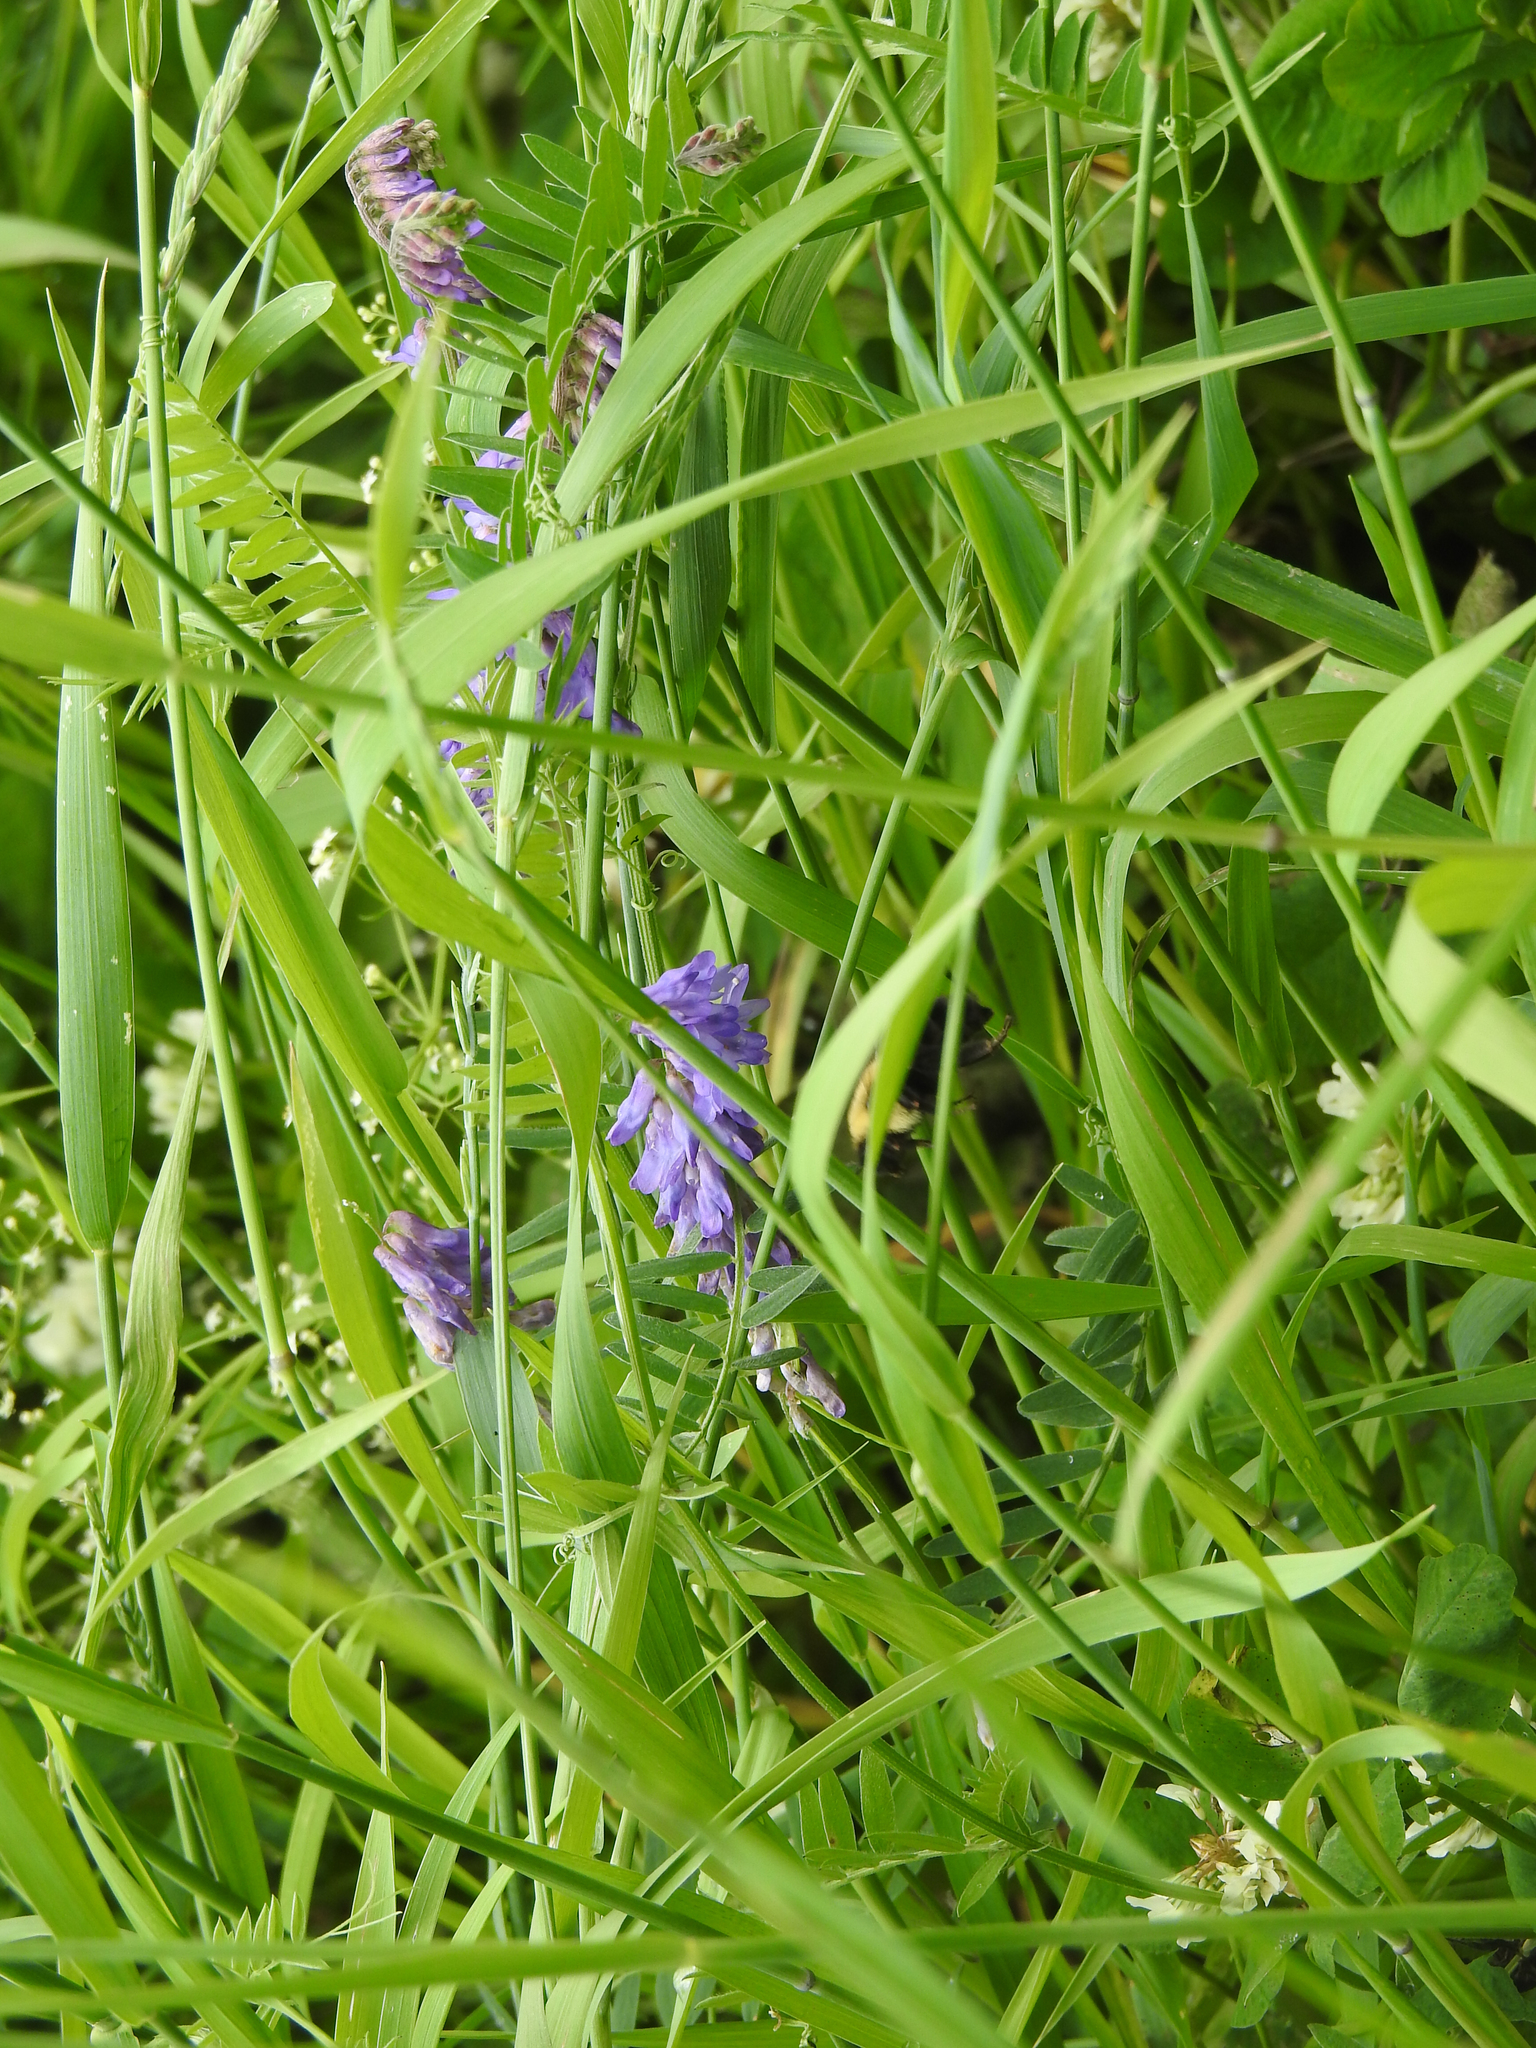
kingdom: Plantae
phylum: Tracheophyta
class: Magnoliopsida
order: Fabales
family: Fabaceae
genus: Vicia
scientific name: Vicia cracca
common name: Bird vetch
